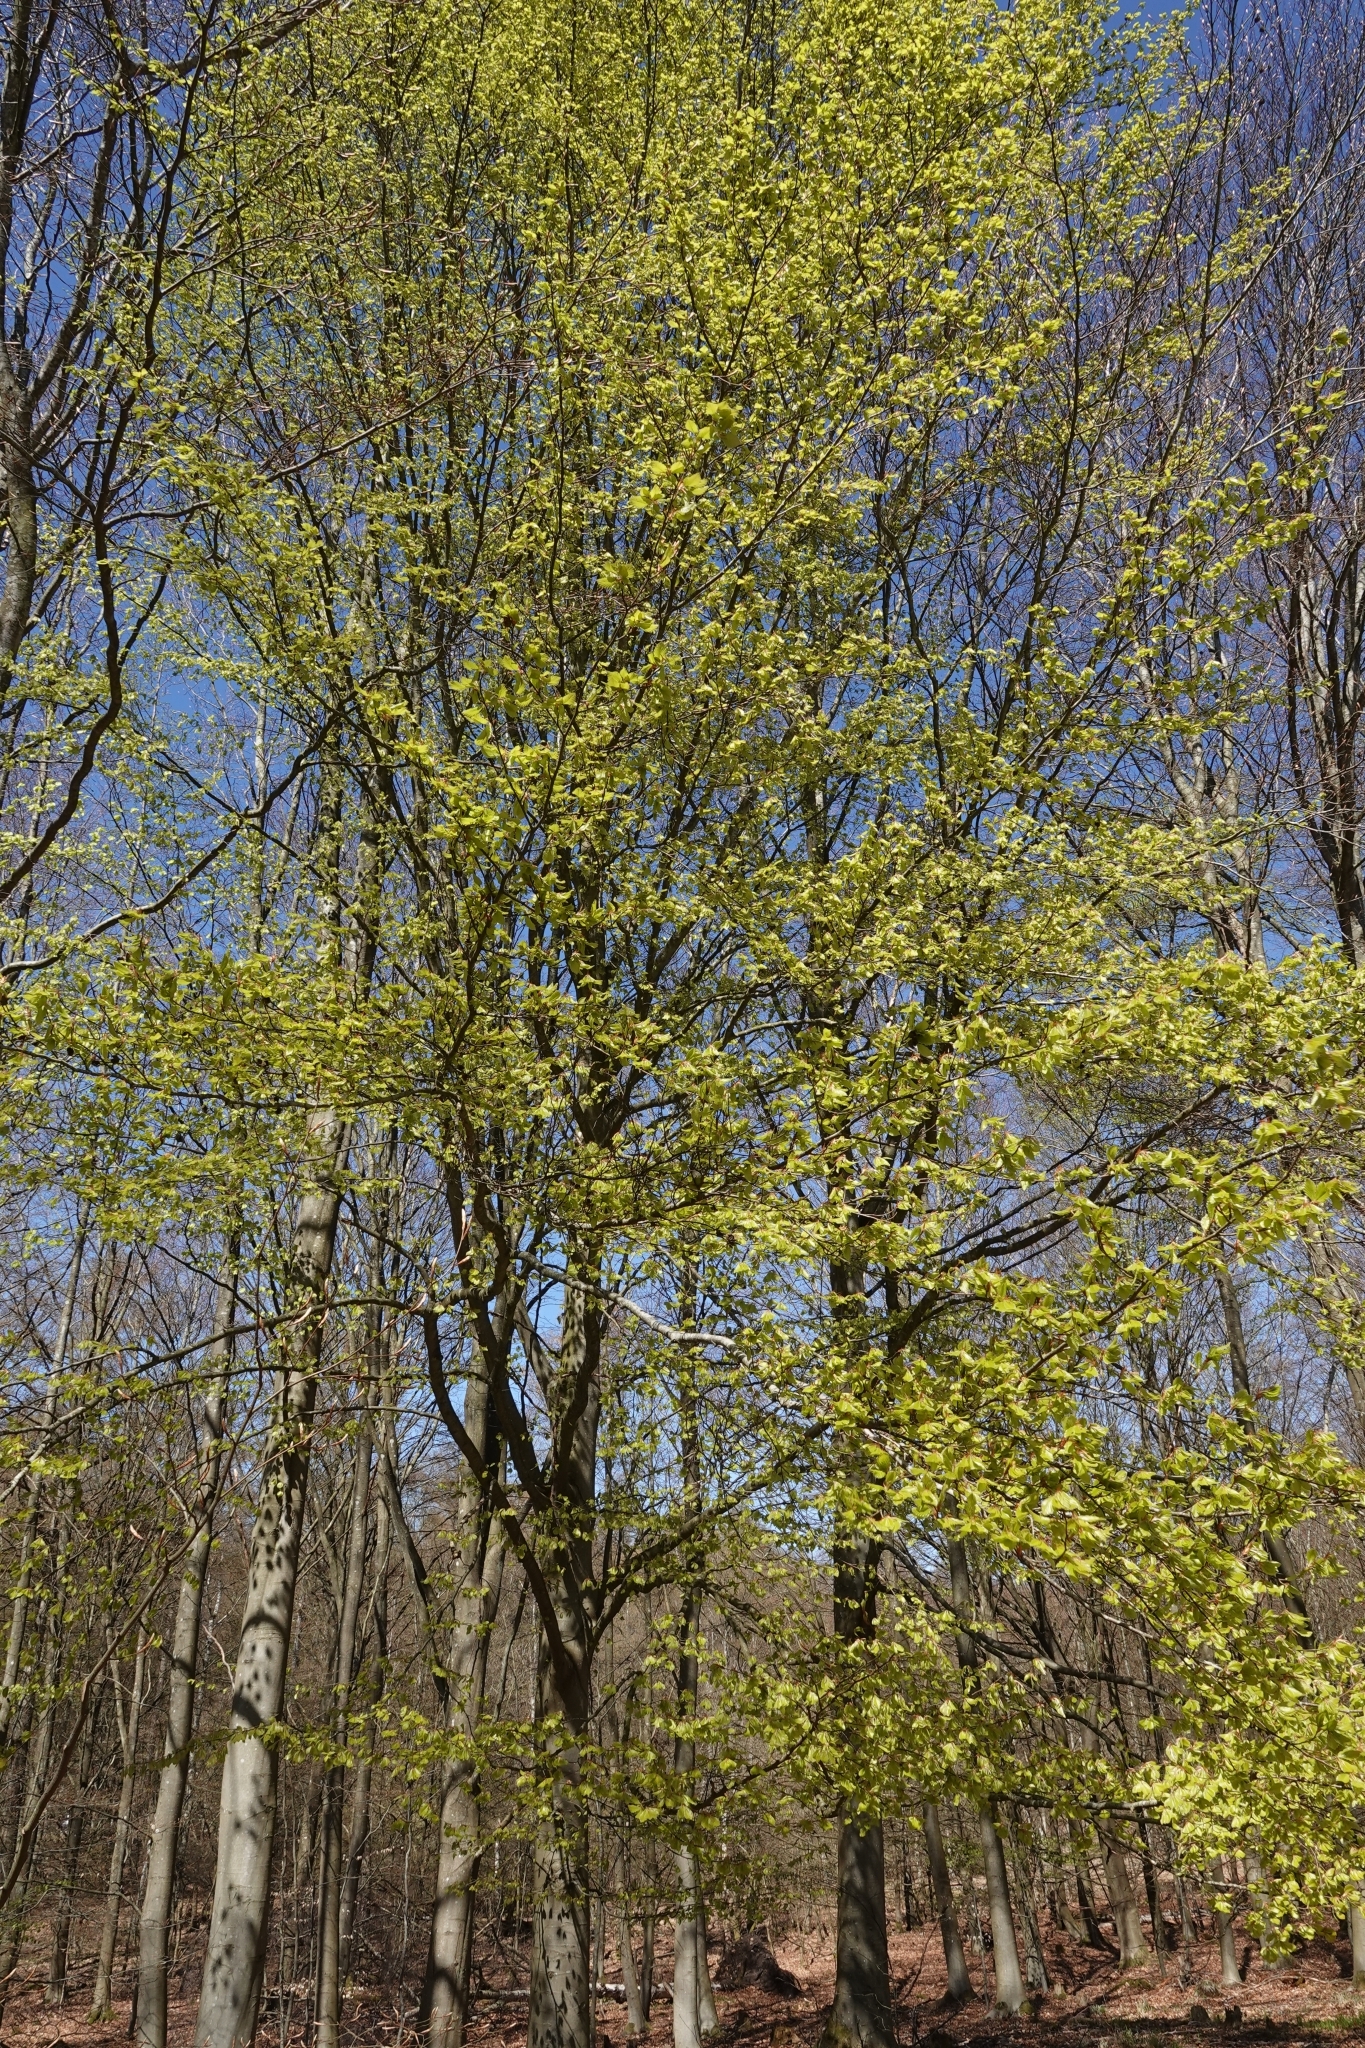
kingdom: Plantae
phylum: Tracheophyta
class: Magnoliopsida
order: Fagales
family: Fagaceae
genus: Fagus
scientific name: Fagus sylvatica
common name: Beech
